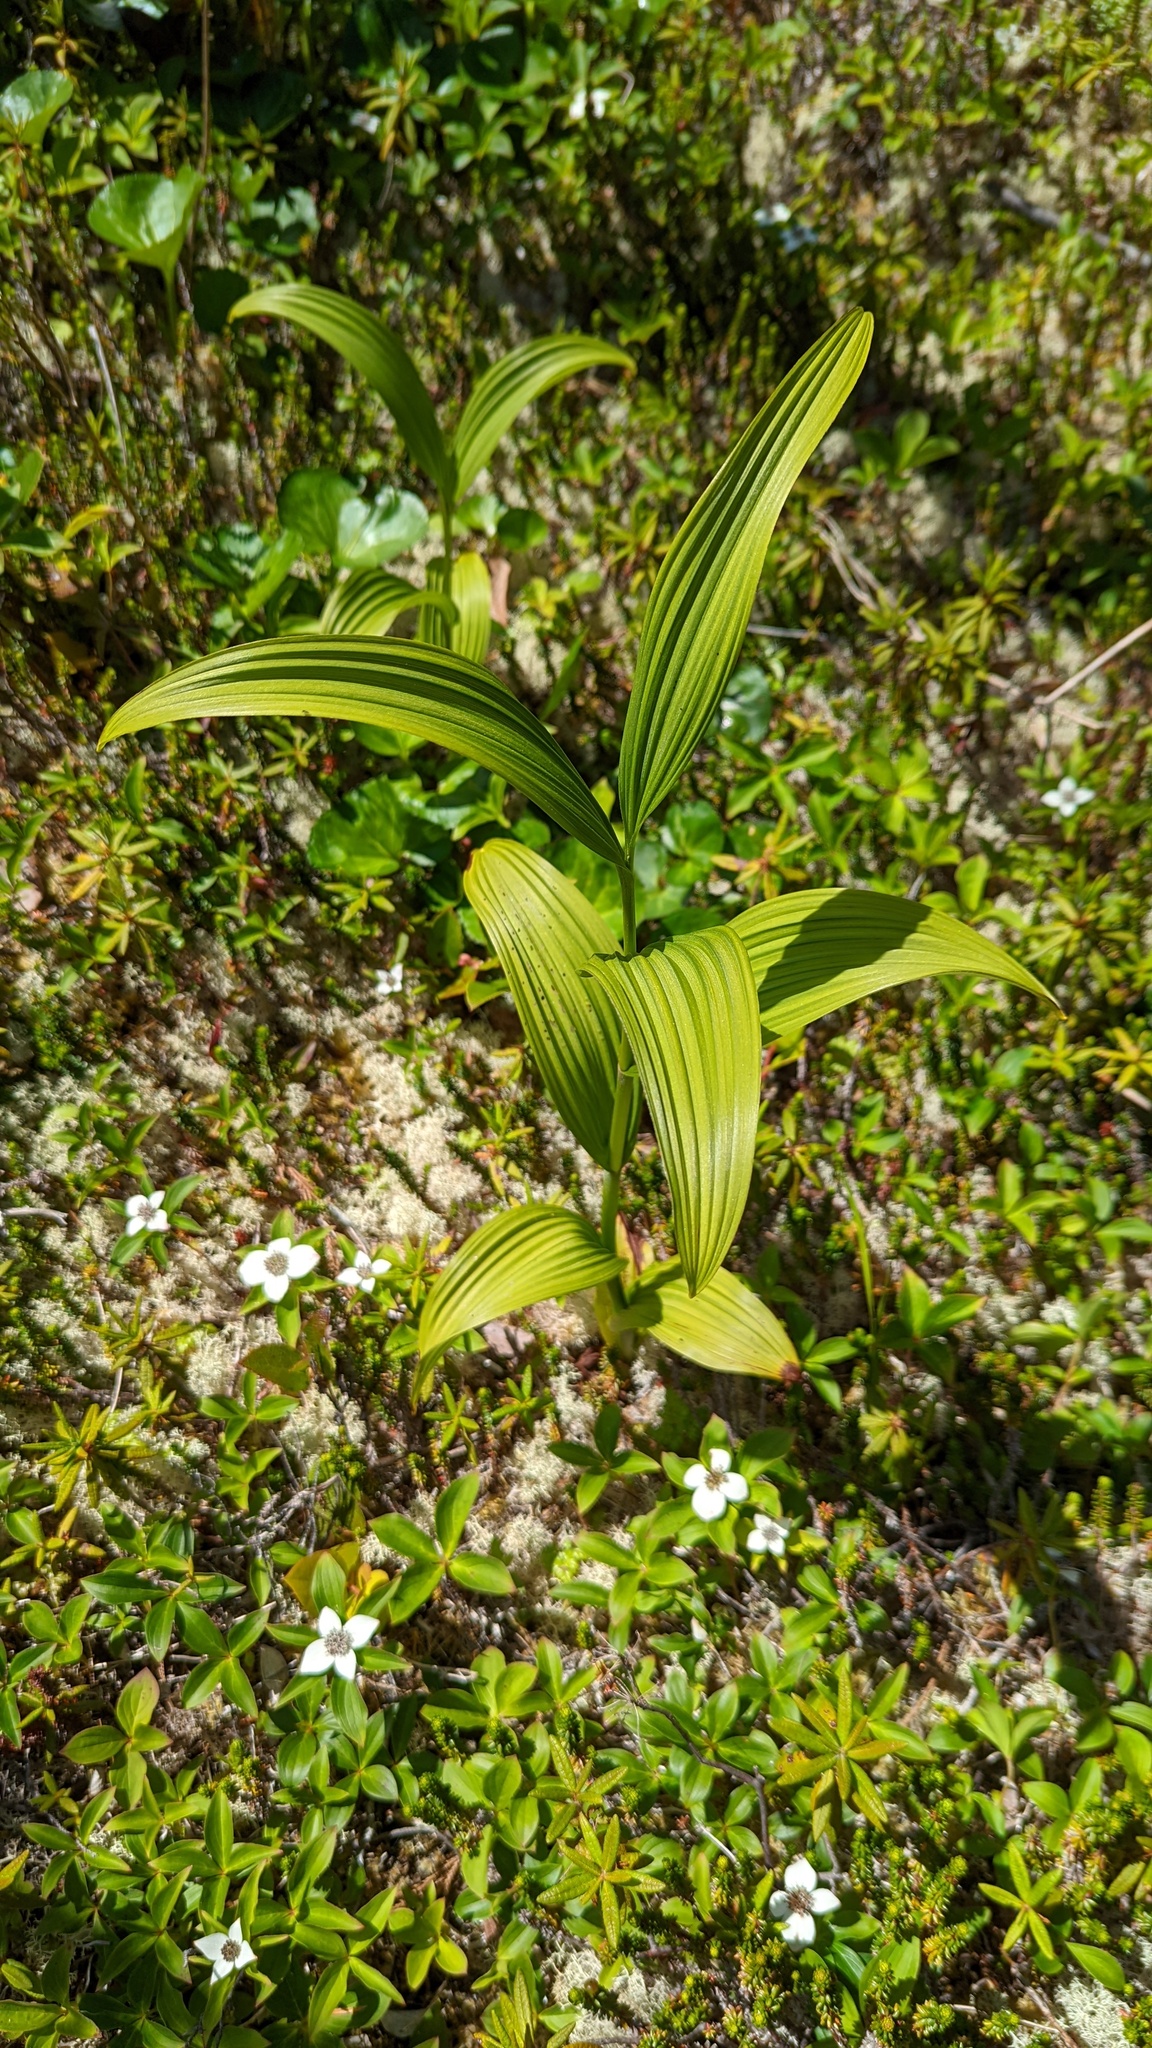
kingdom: Plantae
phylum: Tracheophyta
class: Liliopsida
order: Liliales
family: Melanthiaceae
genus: Veratrum
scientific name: Veratrum viride
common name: American false hellebore
